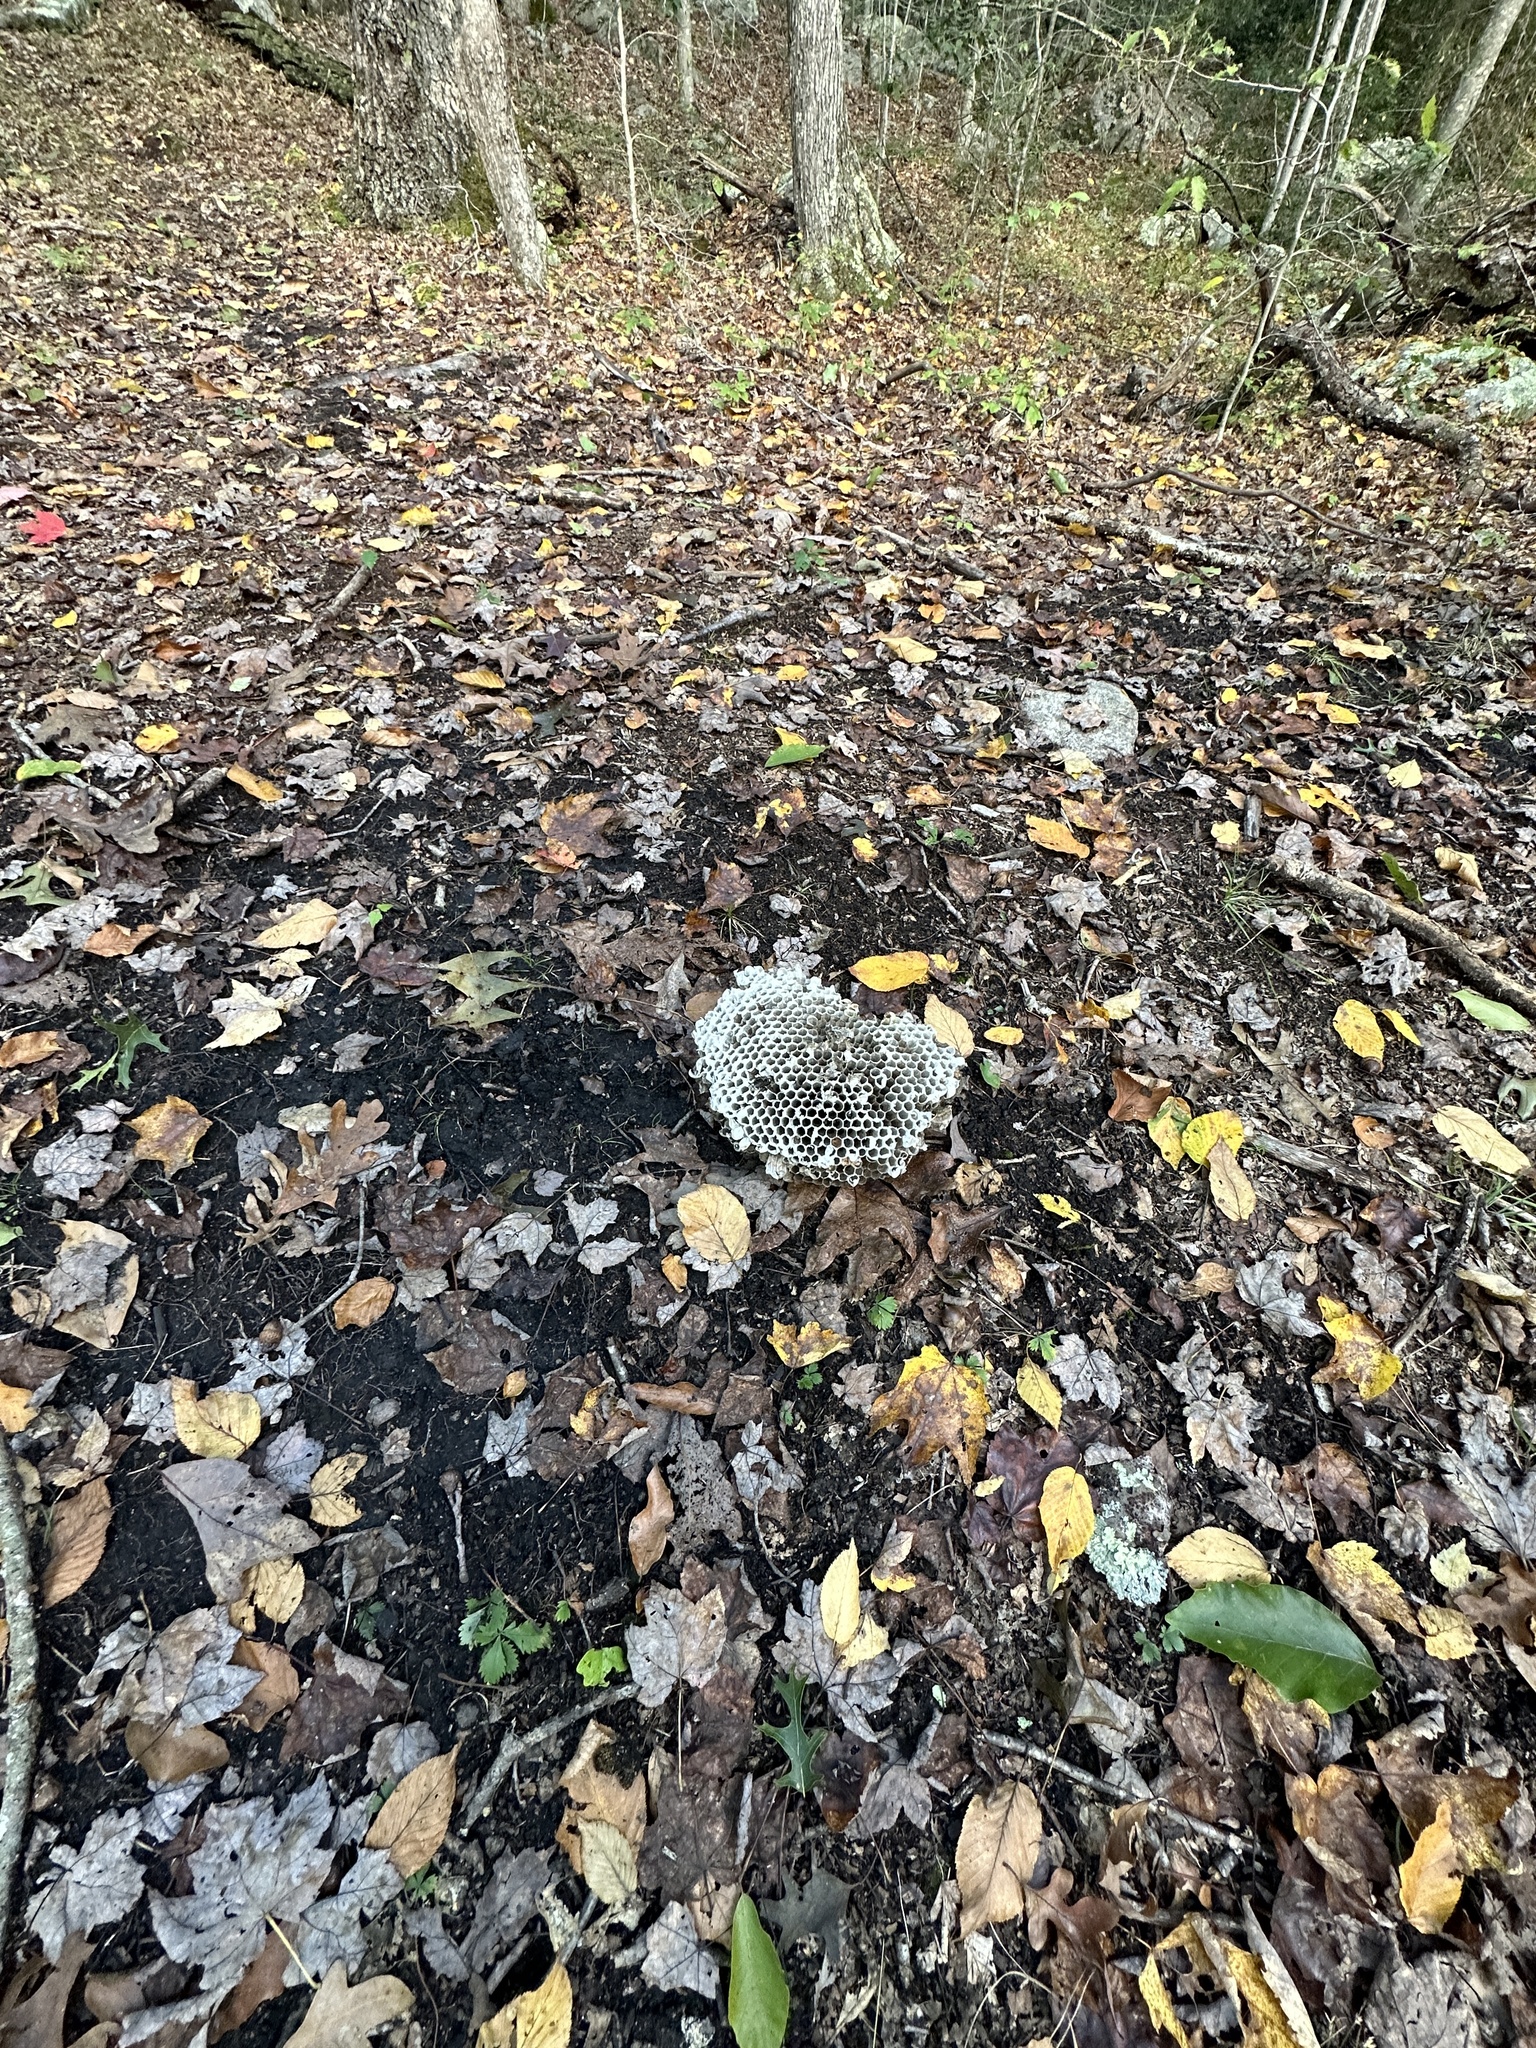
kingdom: Animalia
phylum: Arthropoda
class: Insecta
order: Hymenoptera
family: Vespidae
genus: Dolichovespula
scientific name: Dolichovespula maculata
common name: Bald-faced hornet
